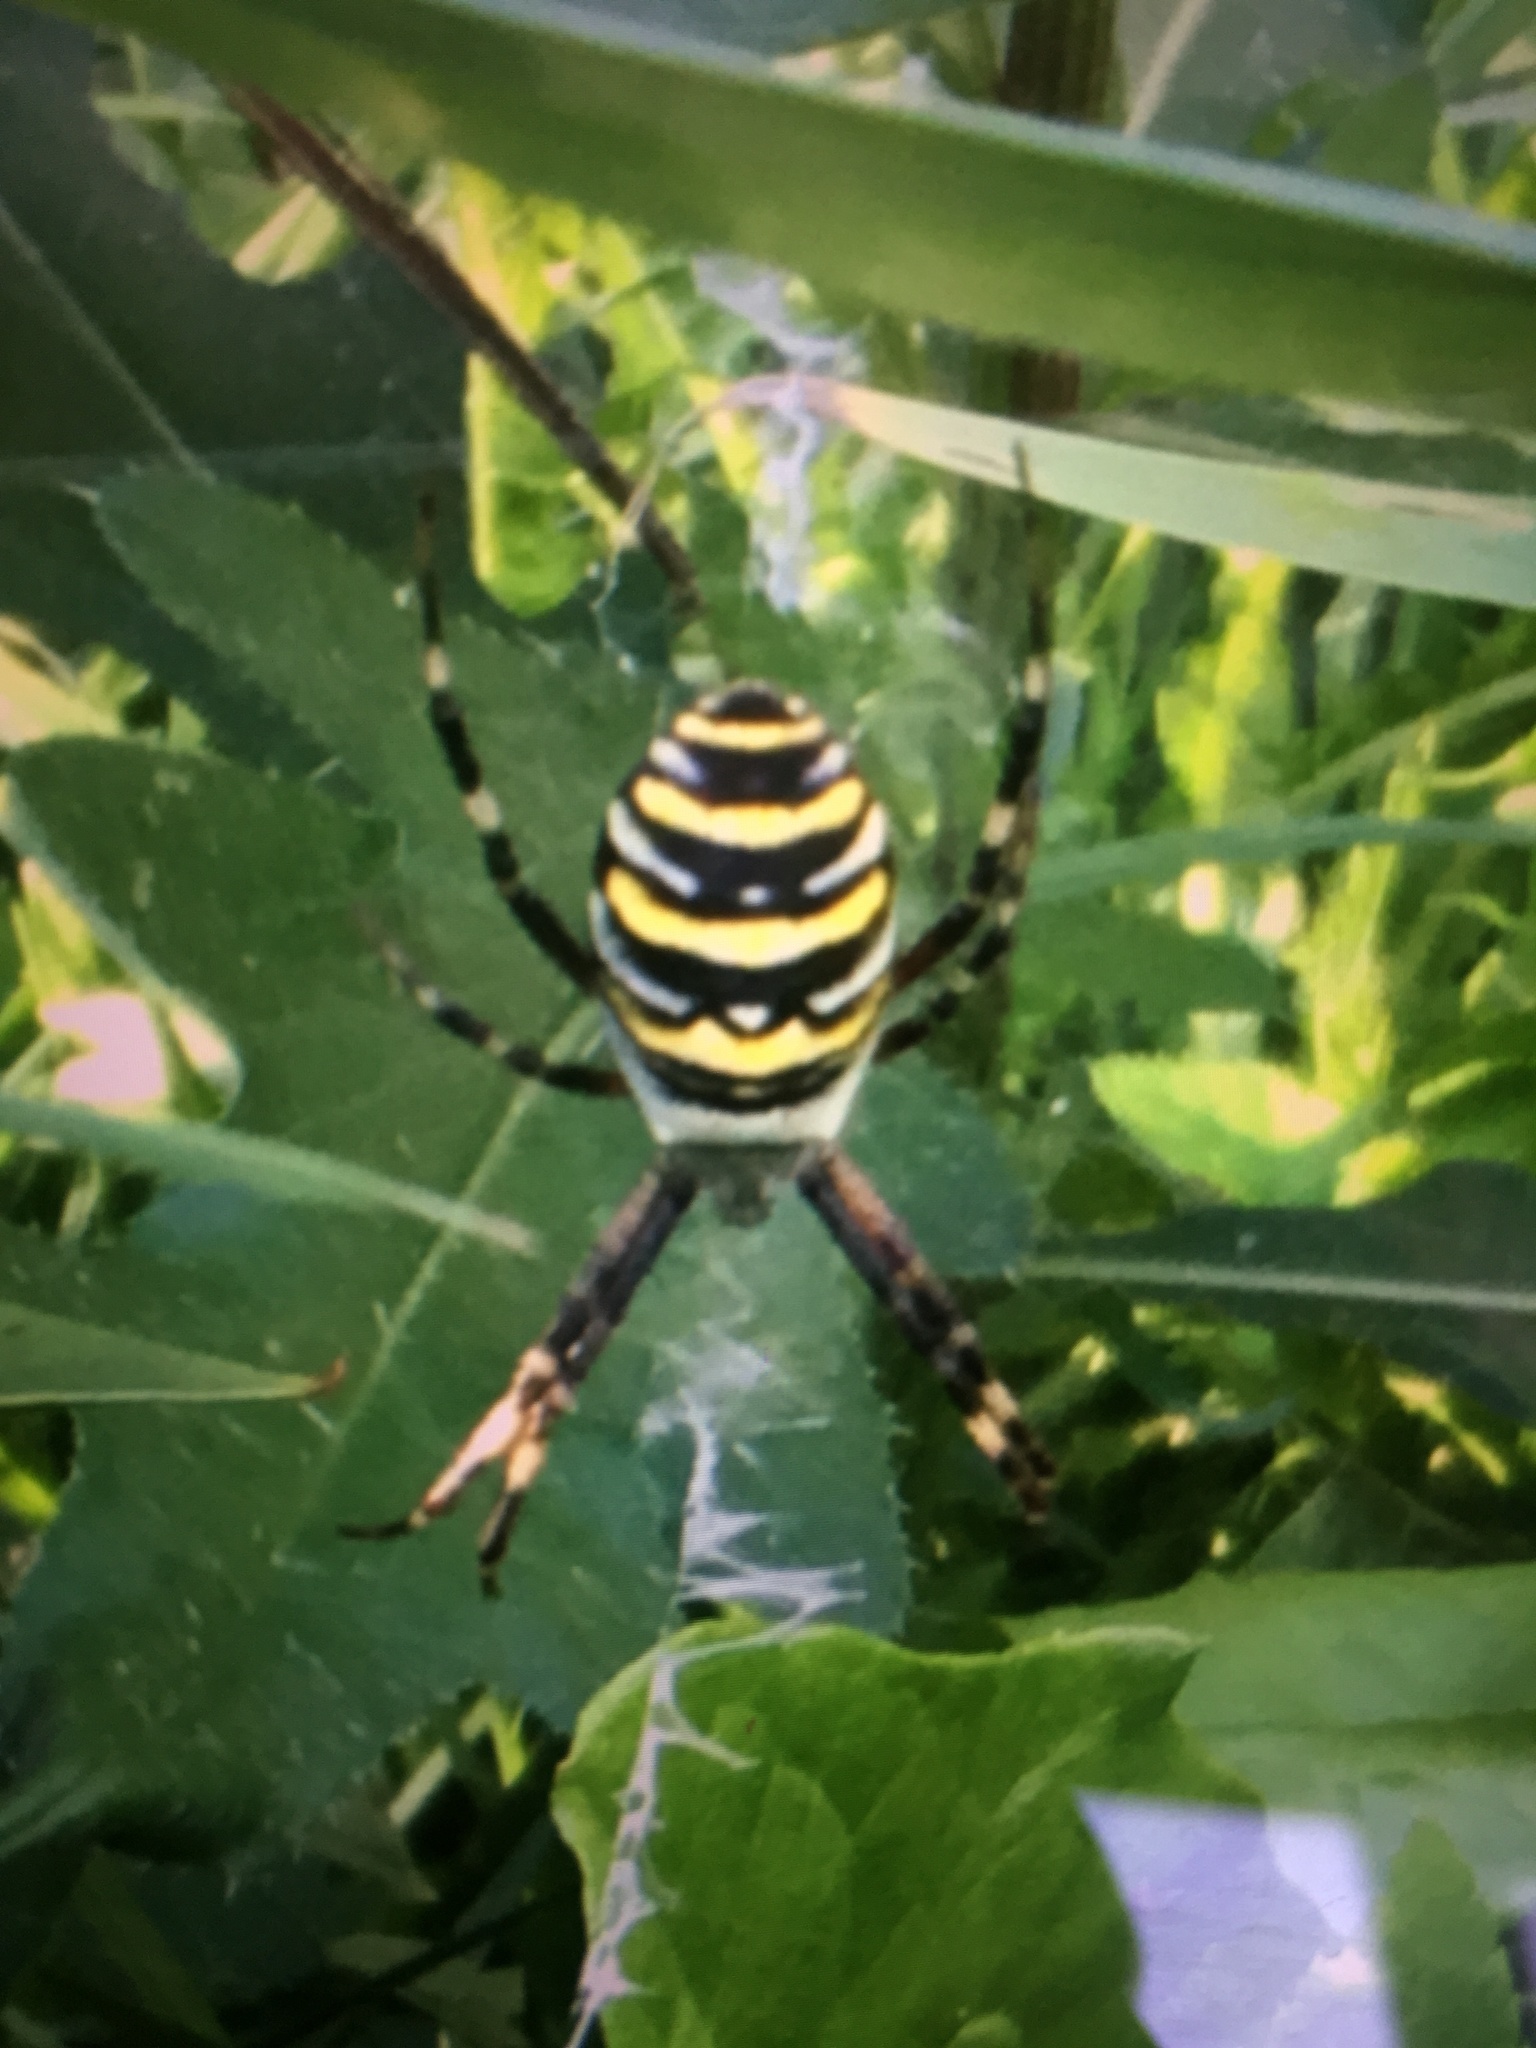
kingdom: Animalia
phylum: Arthropoda
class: Arachnida
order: Araneae
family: Araneidae
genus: Argiope
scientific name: Argiope bruennichi
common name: Wasp spider
